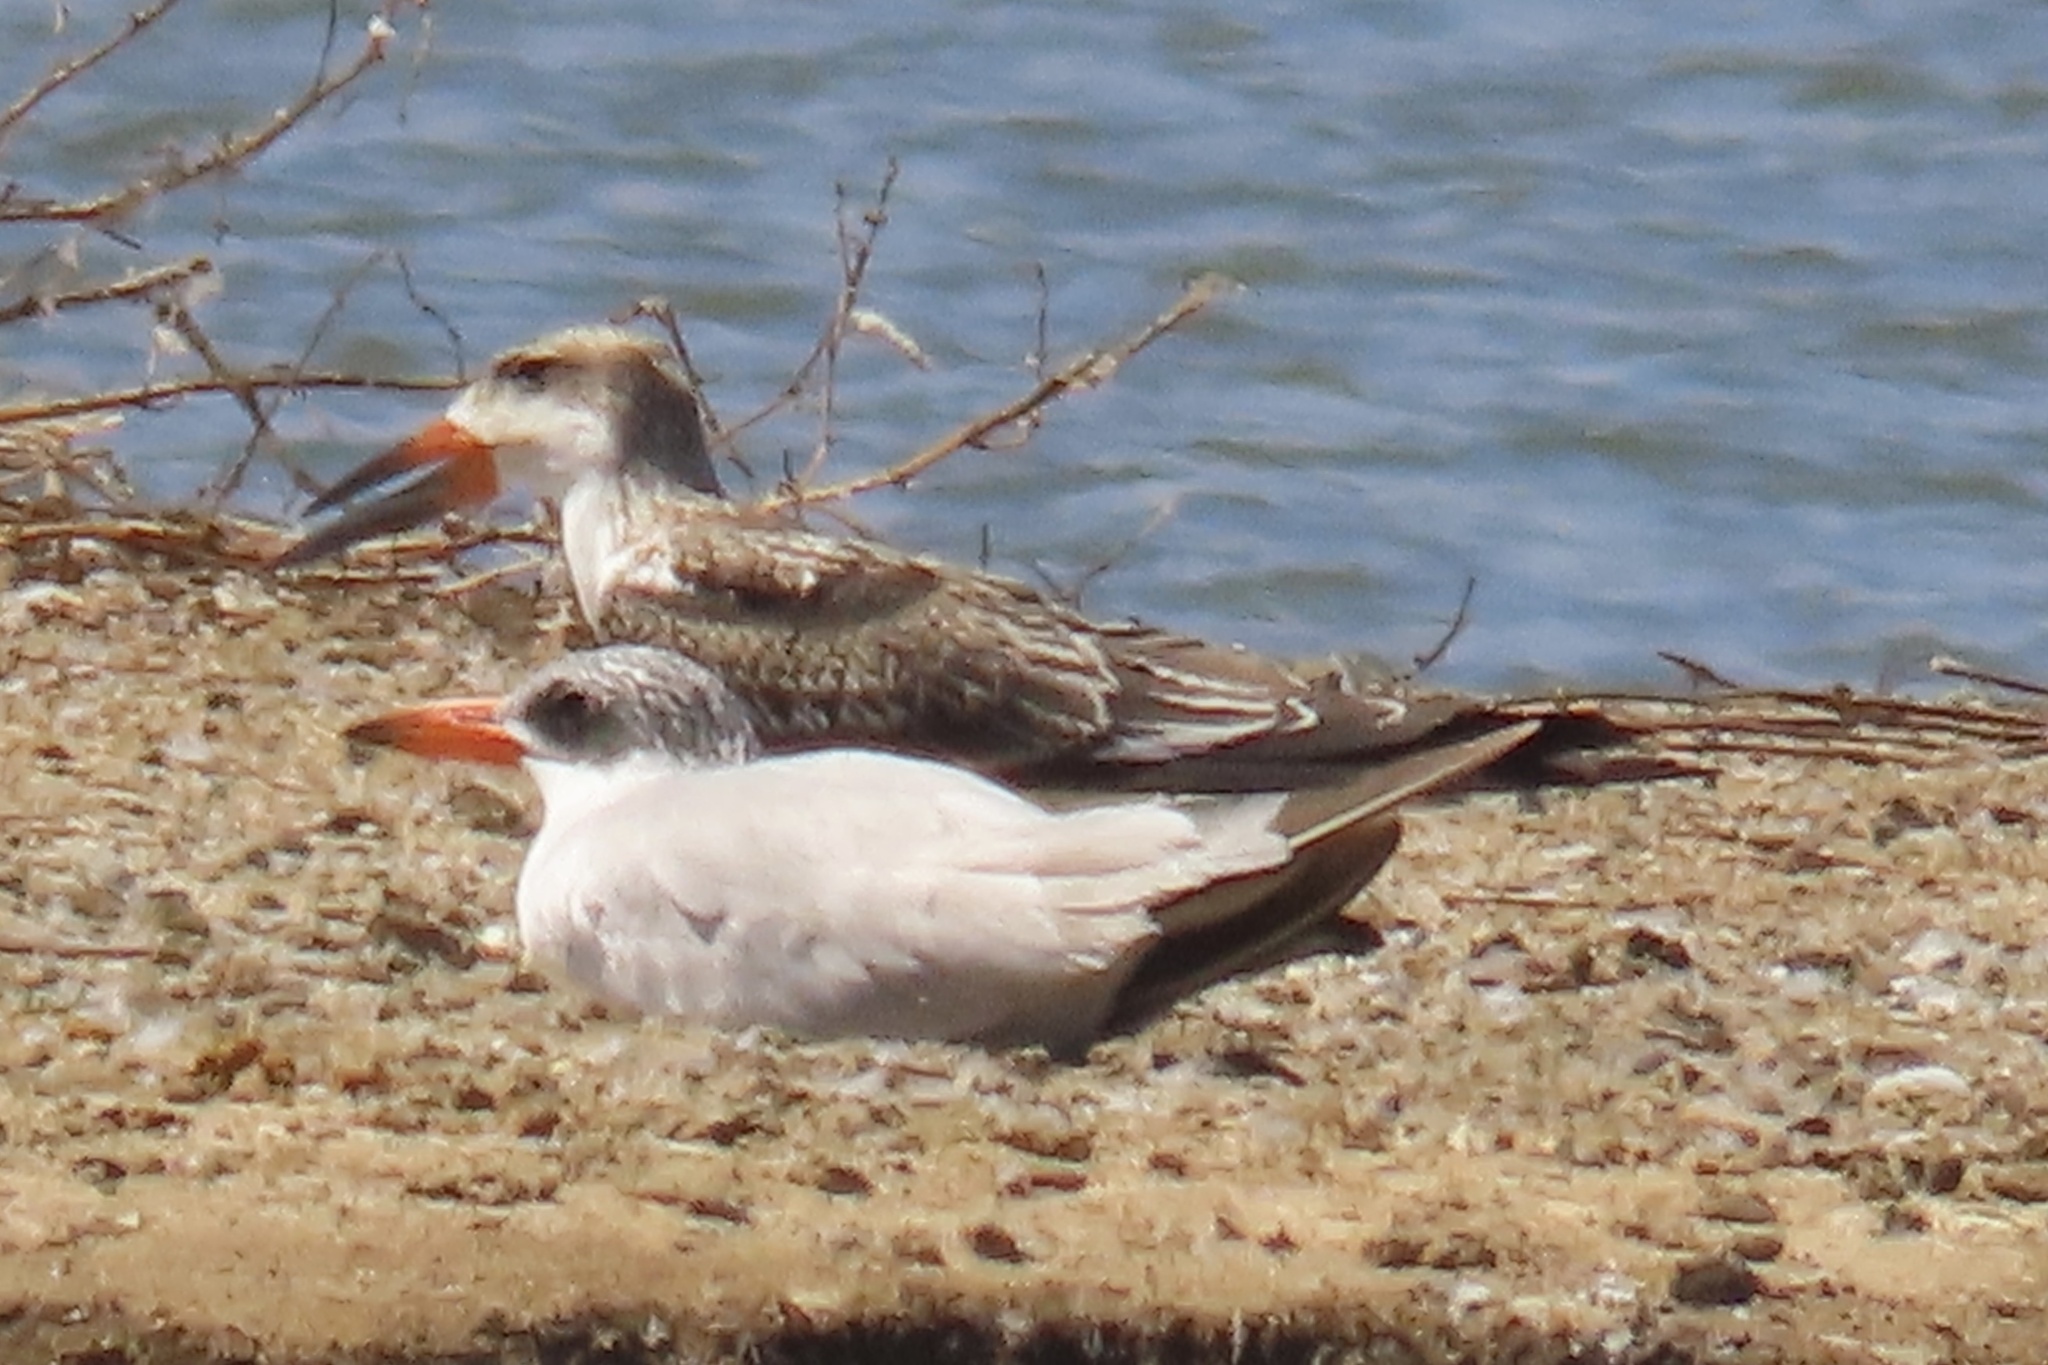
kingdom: Animalia
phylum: Chordata
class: Aves
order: Charadriiformes
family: Laridae
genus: Rynchops
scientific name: Rynchops niger
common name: Black skimmer
